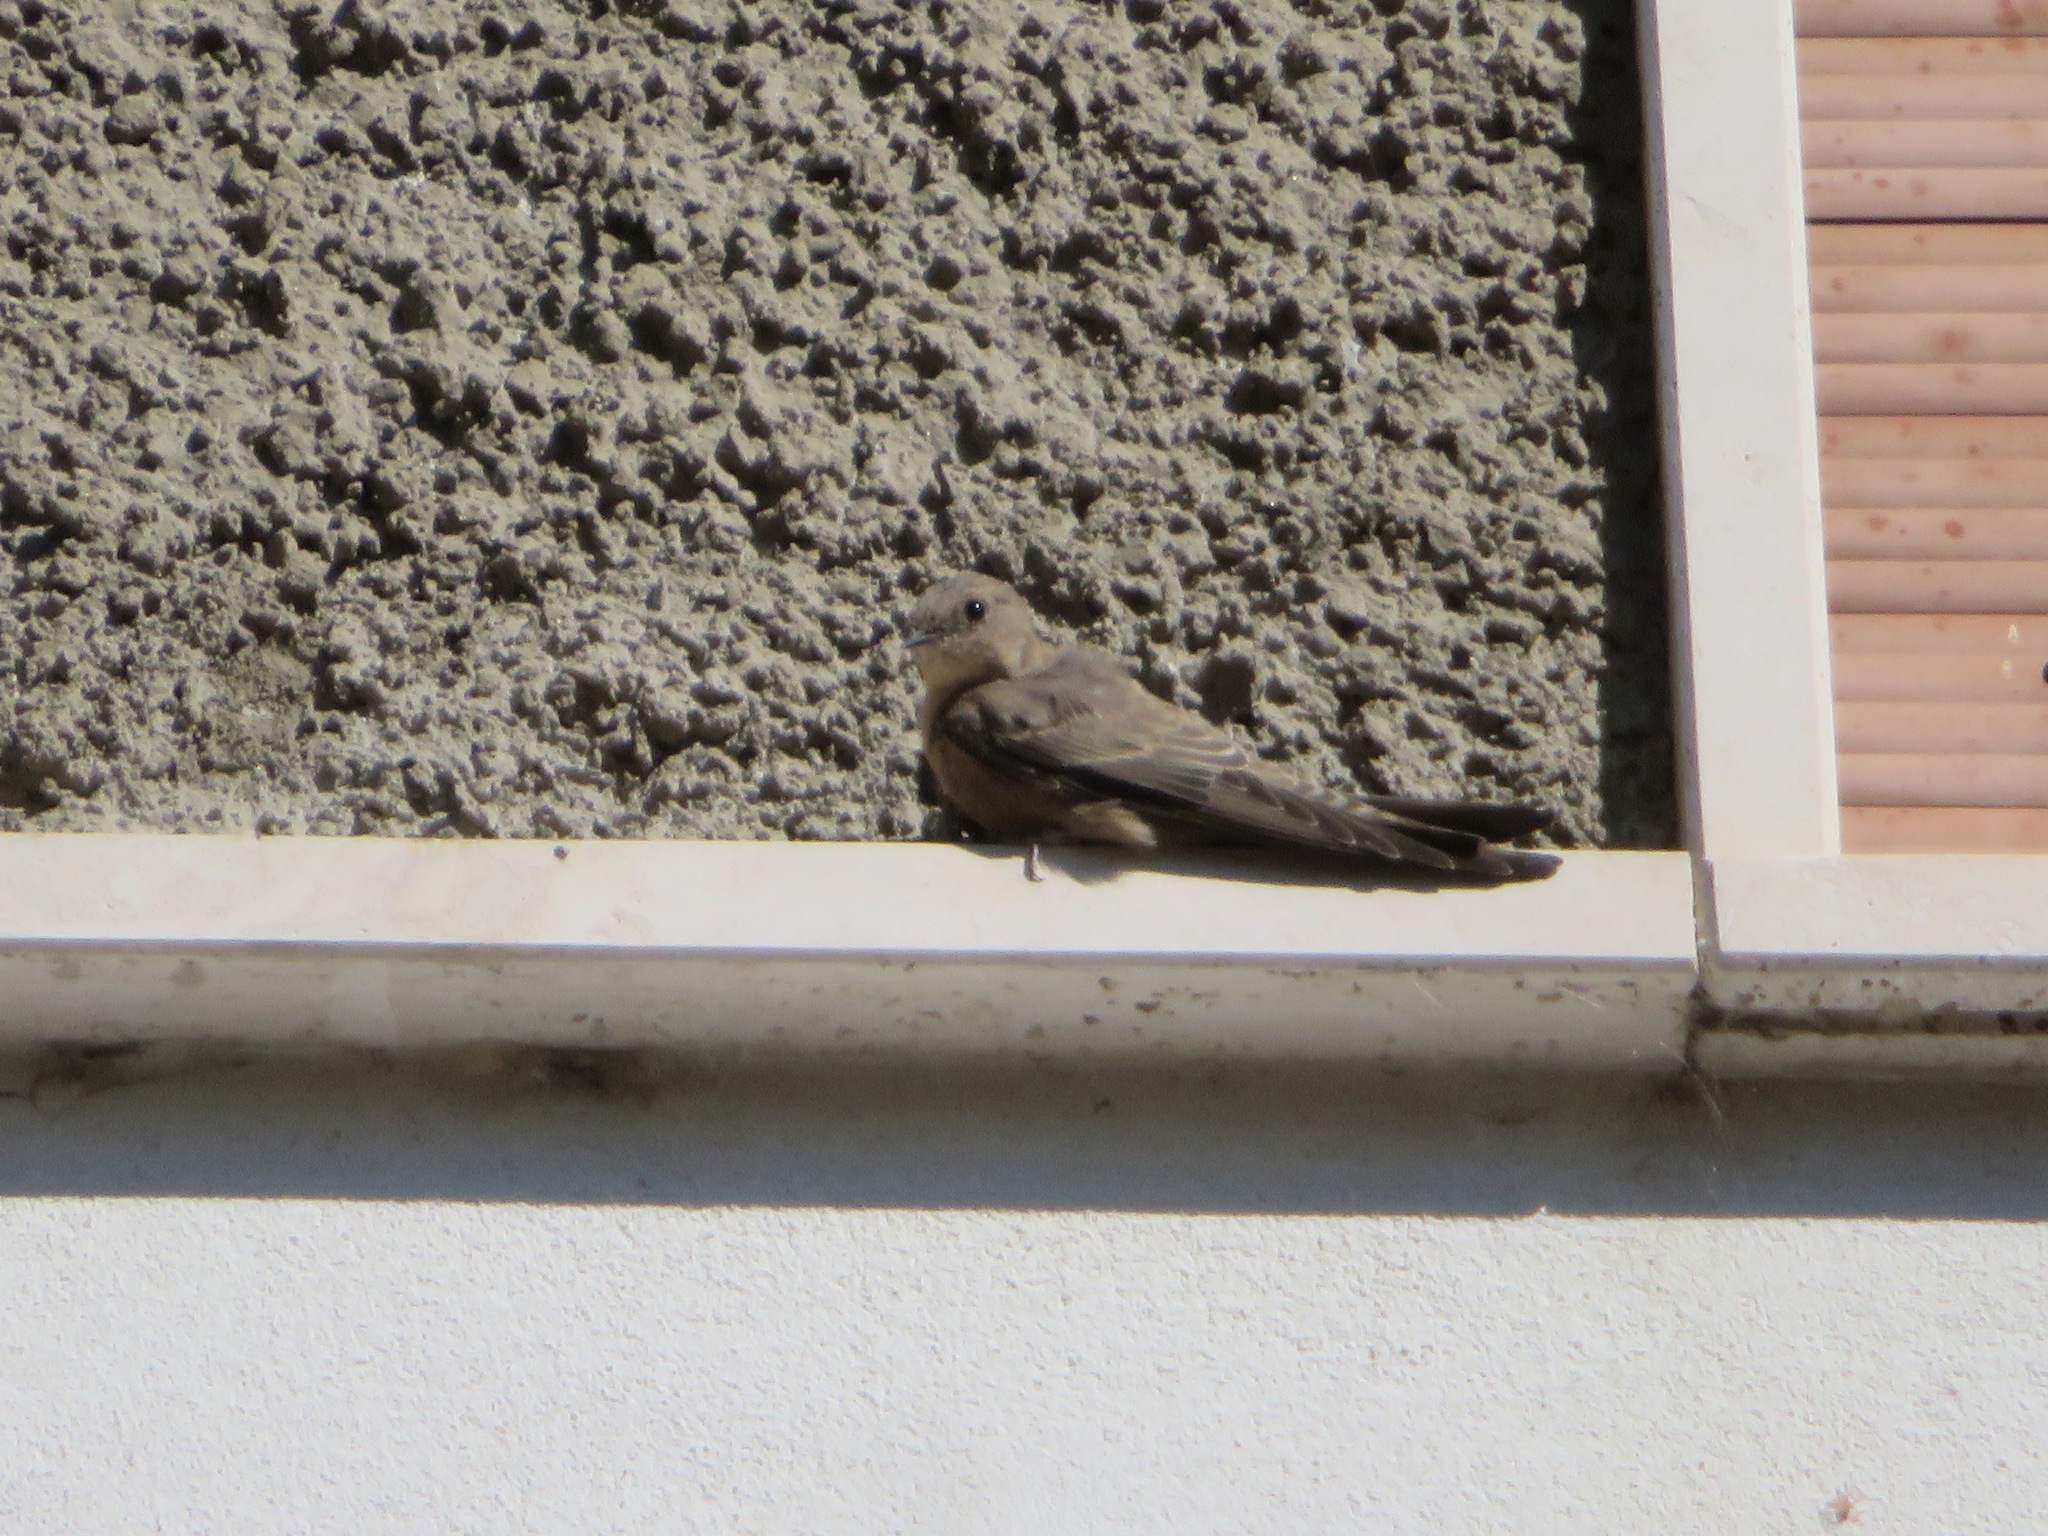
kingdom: Animalia
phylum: Chordata
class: Aves
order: Passeriformes
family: Hirundinidae
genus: Ptyonoprogne
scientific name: Ptyonoprogne rupestris
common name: Eurasian crag martin
